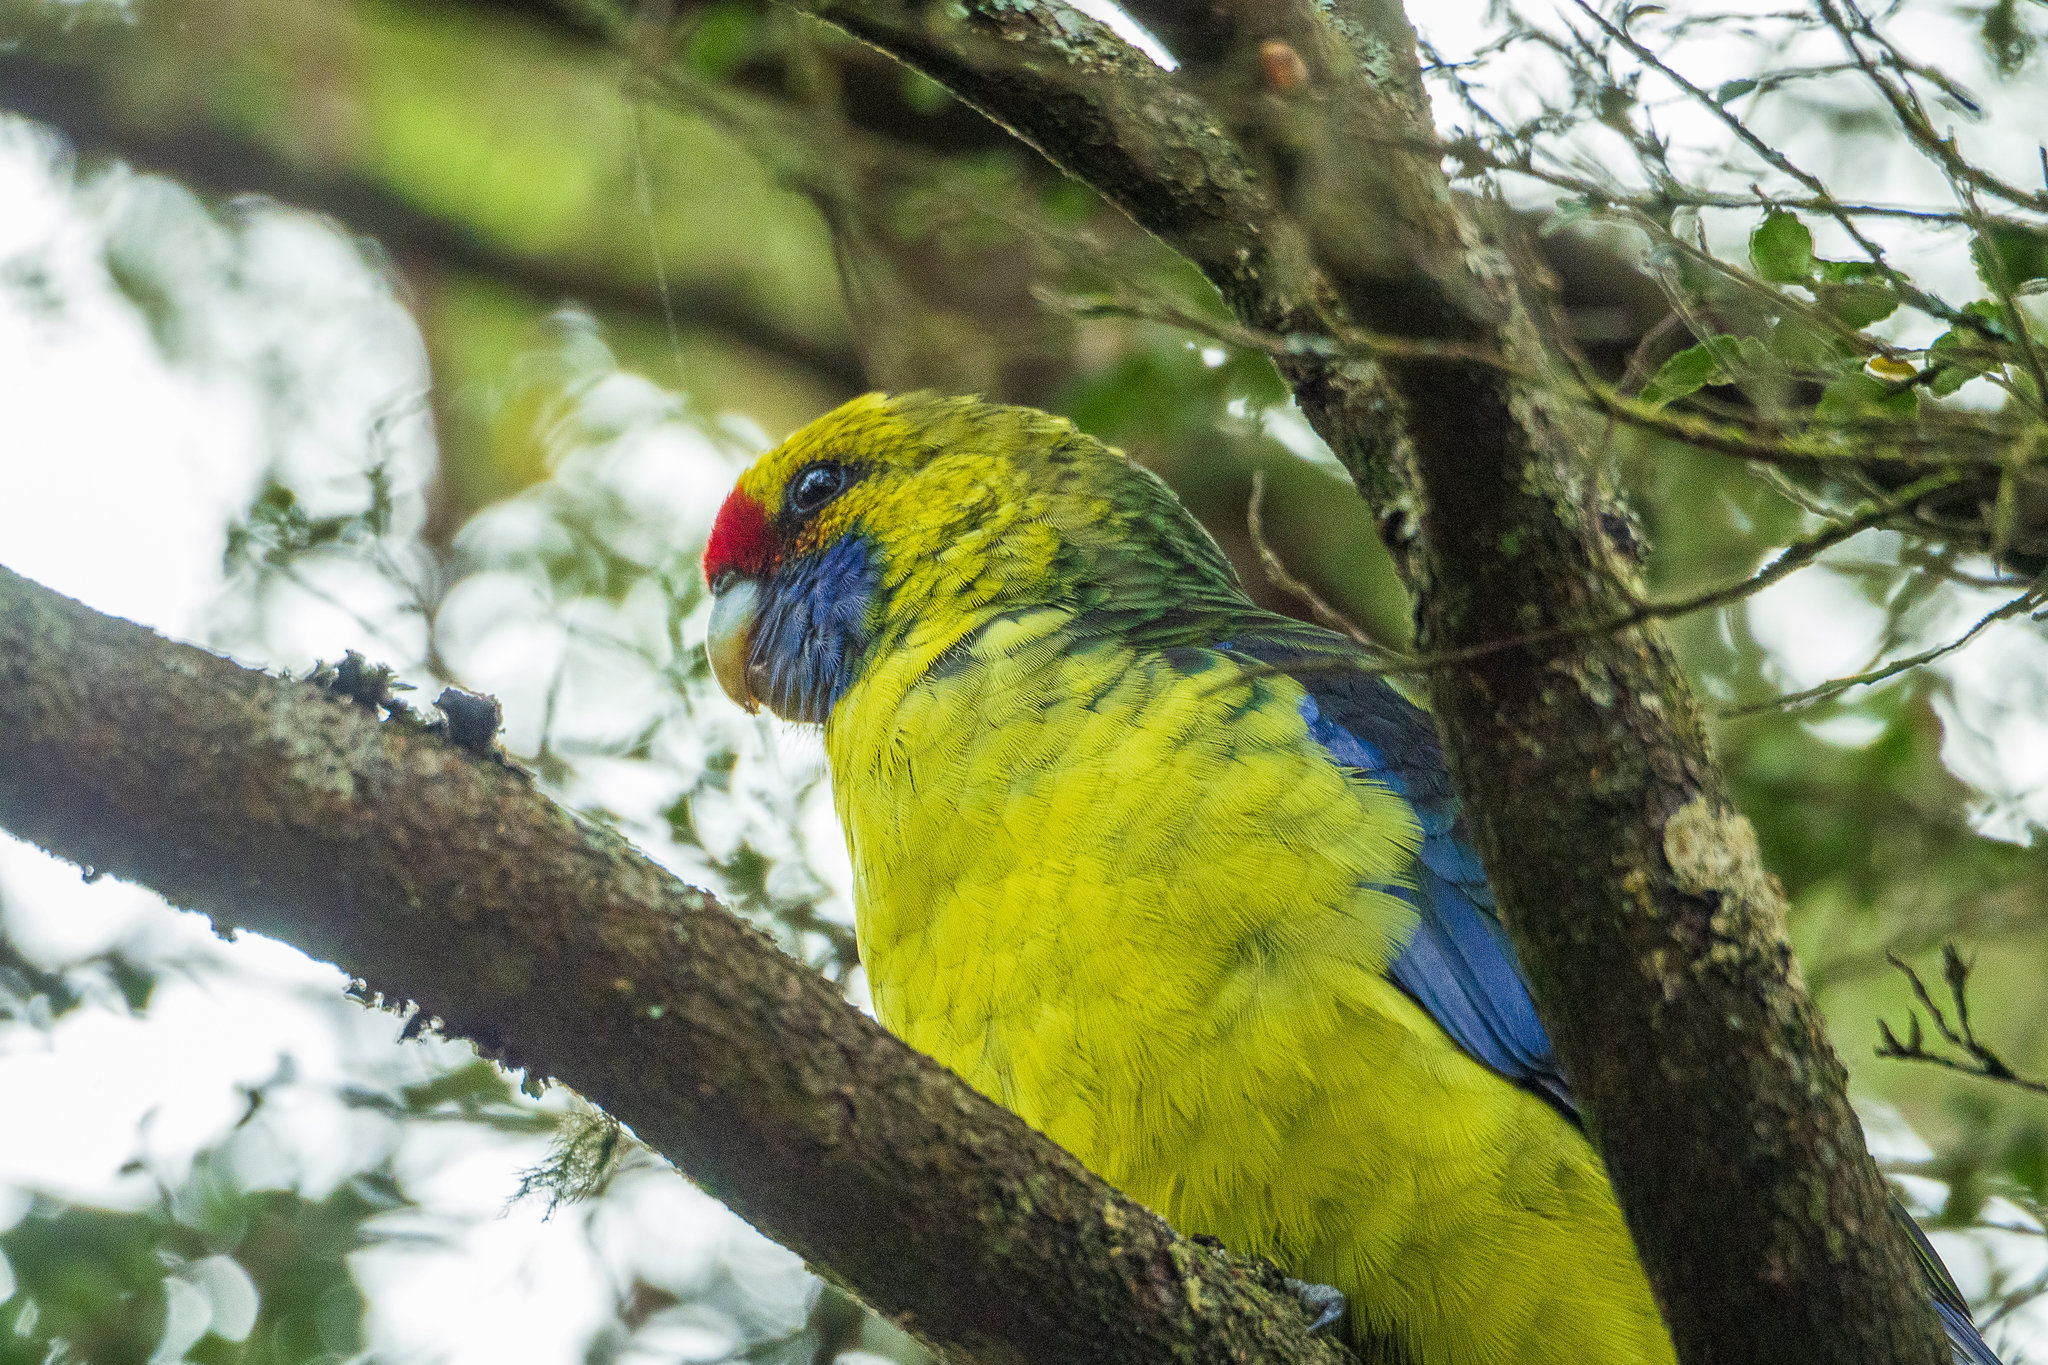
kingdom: Animalia
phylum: Chordata
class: Aves
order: Psittaciformes
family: Psittacidae
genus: Platycercus
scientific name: Platycercus caledonicus
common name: Green rosella
